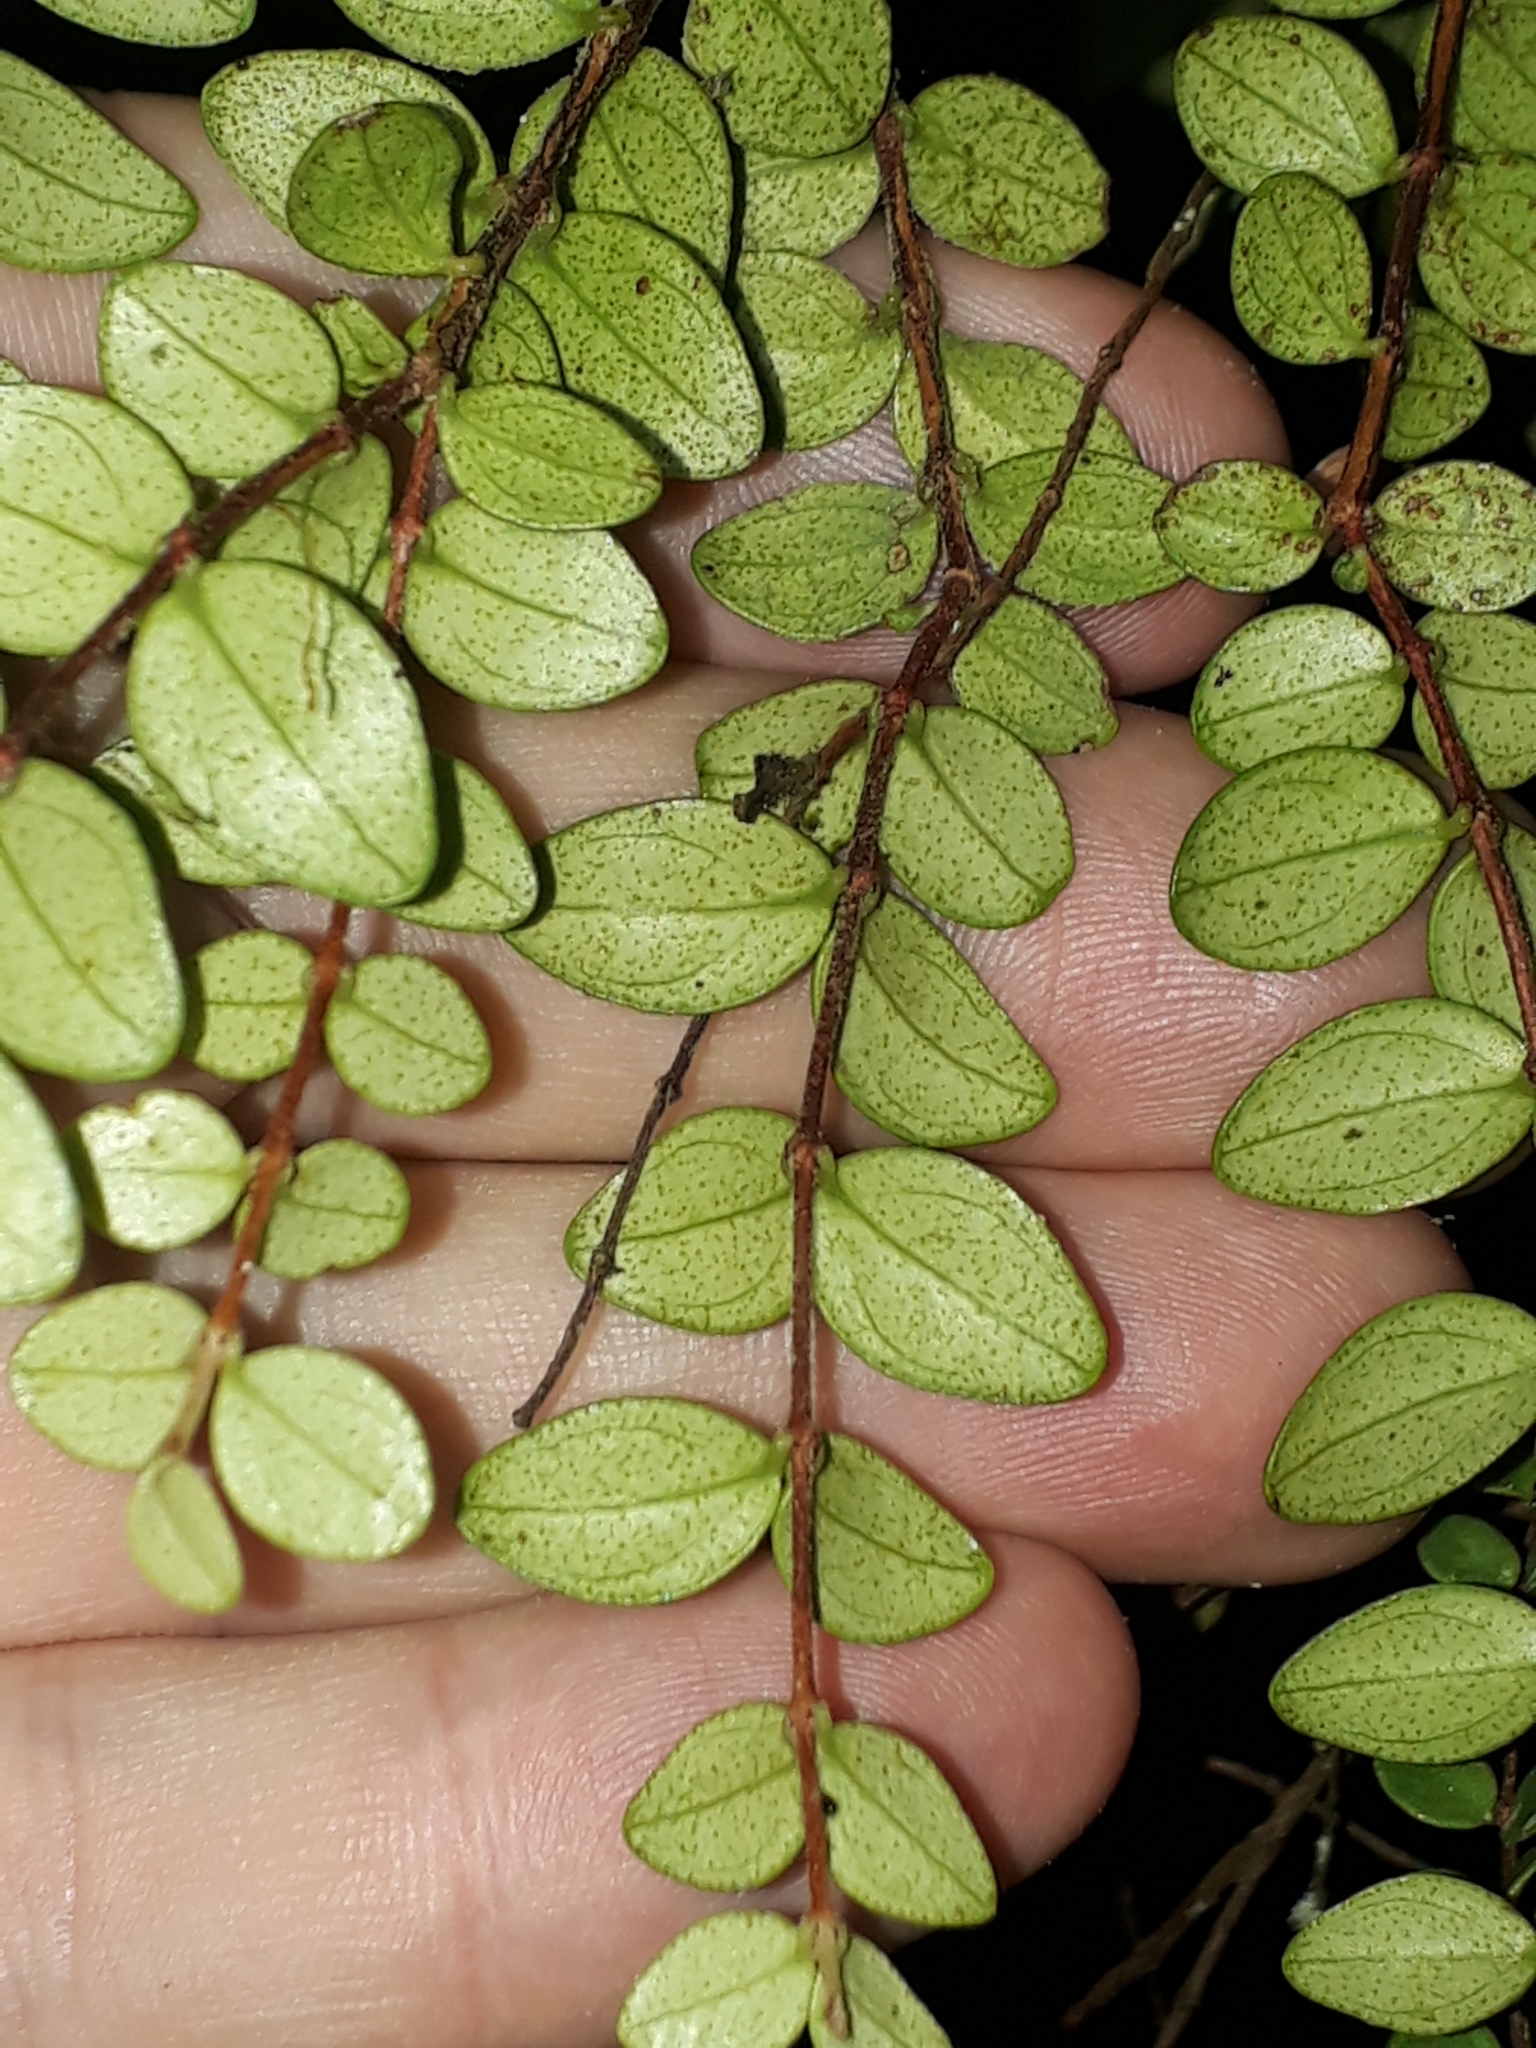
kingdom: Plantae
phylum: Tracheophyta
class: Magnoliopsida
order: Myrtales
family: Myrtaceae
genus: Metrosideros
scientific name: Metrosideros perforata
